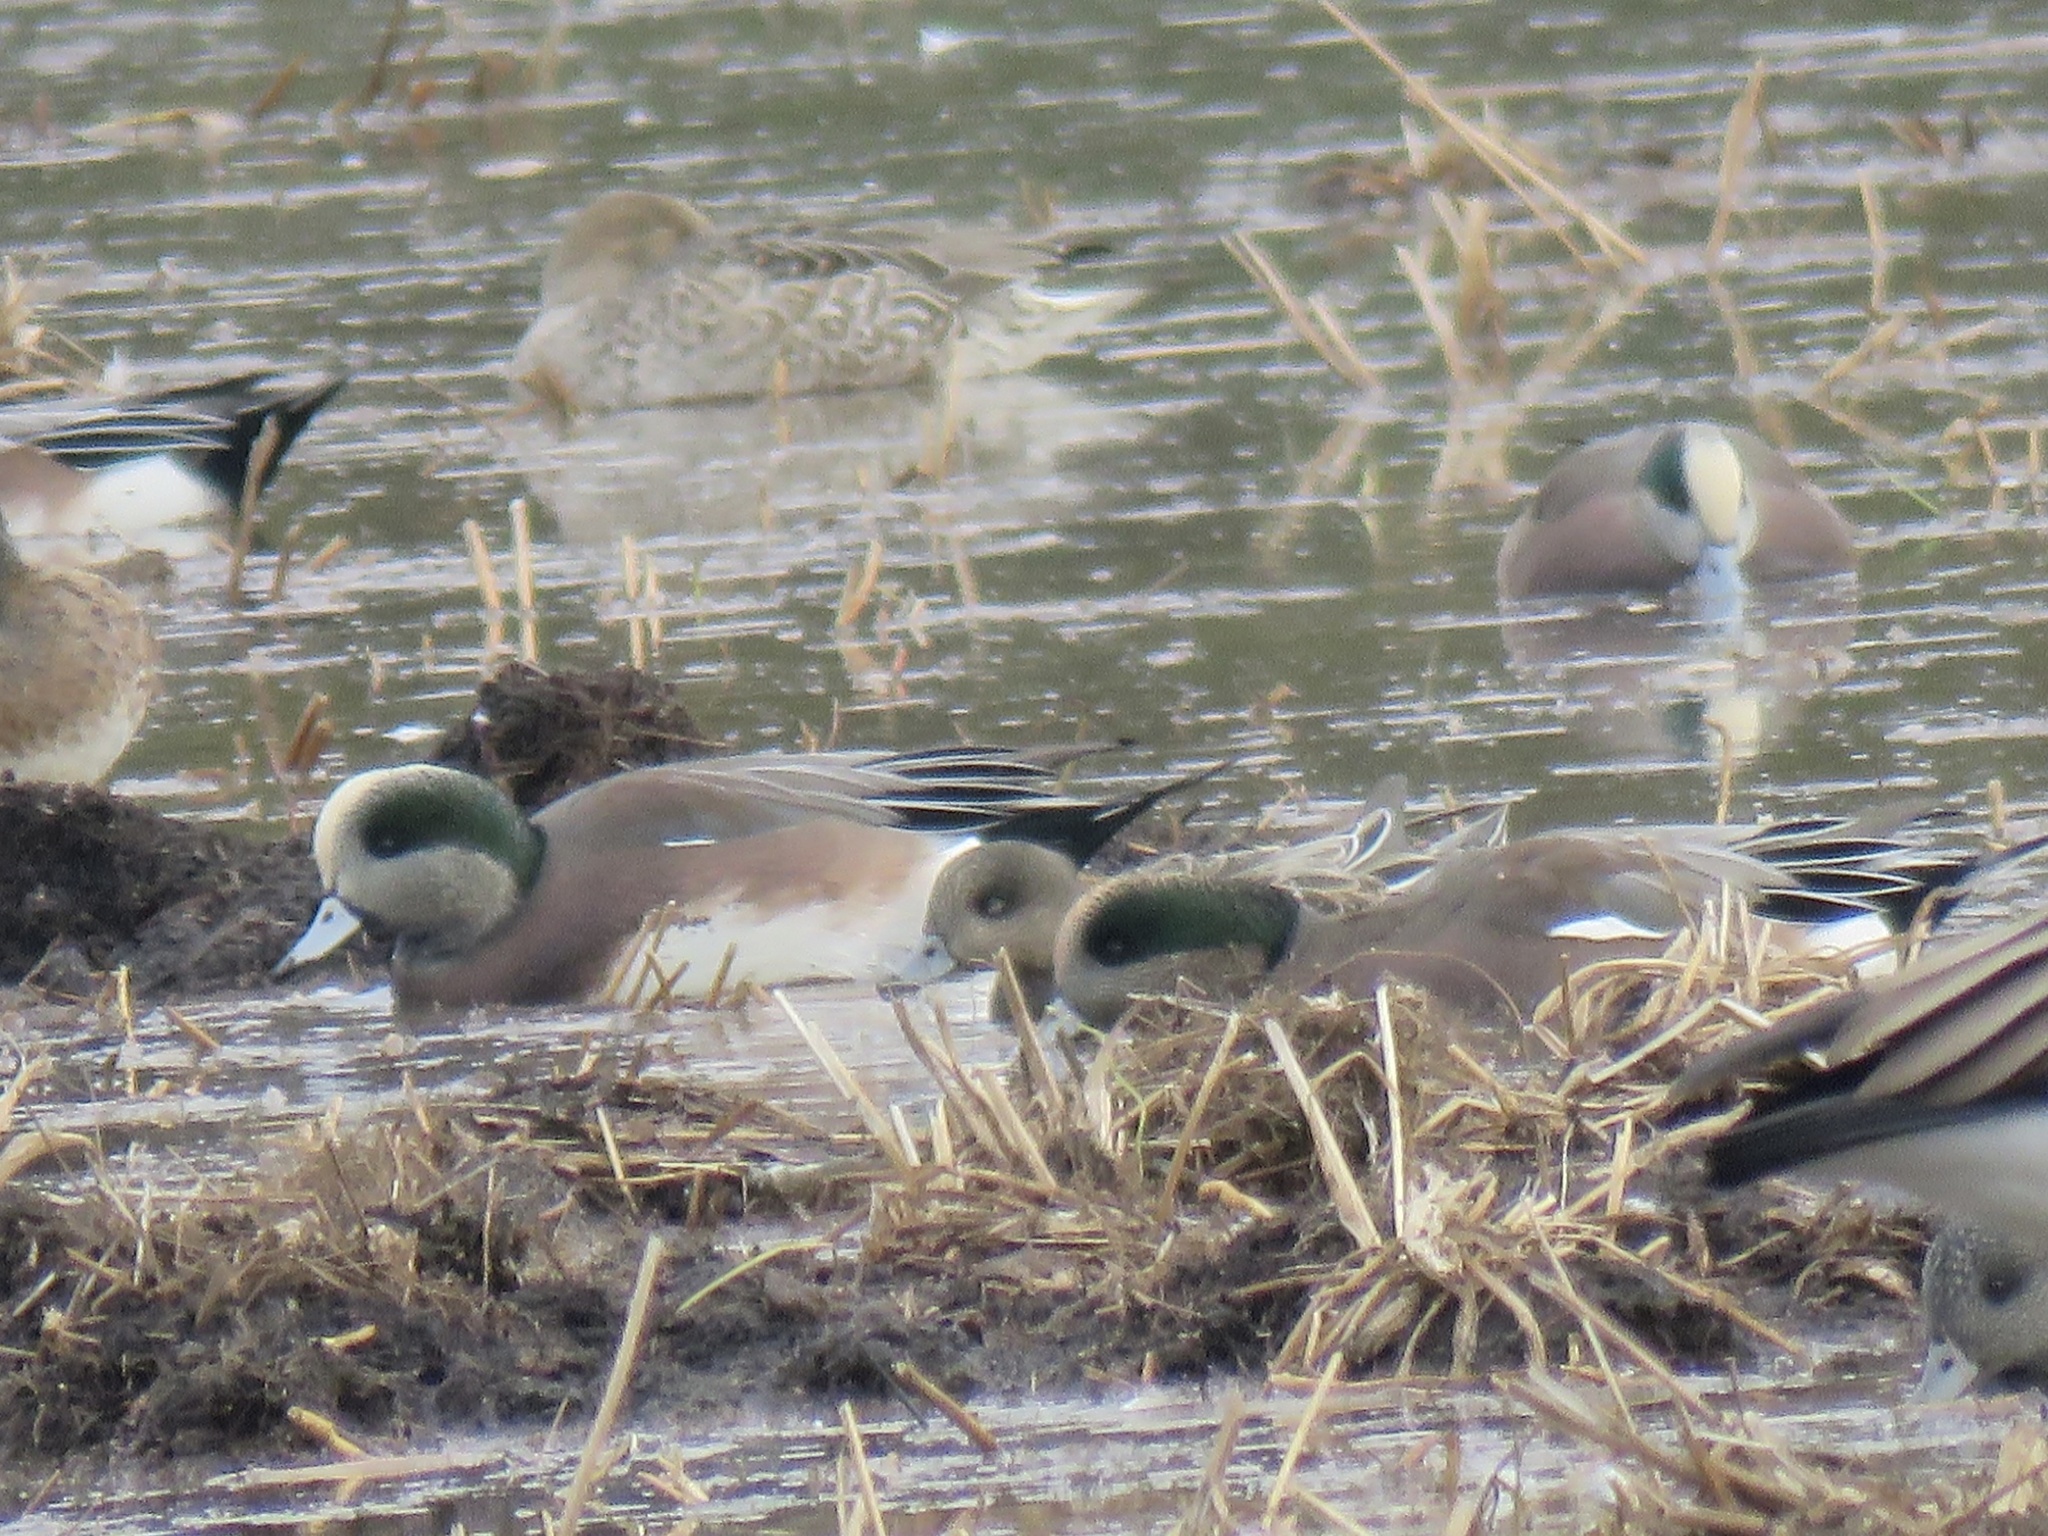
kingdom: Animalia
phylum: Chordata
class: Aves
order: Anseriformes
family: Anatidae
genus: Mareca
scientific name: Mareca americana
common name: American wigeon
